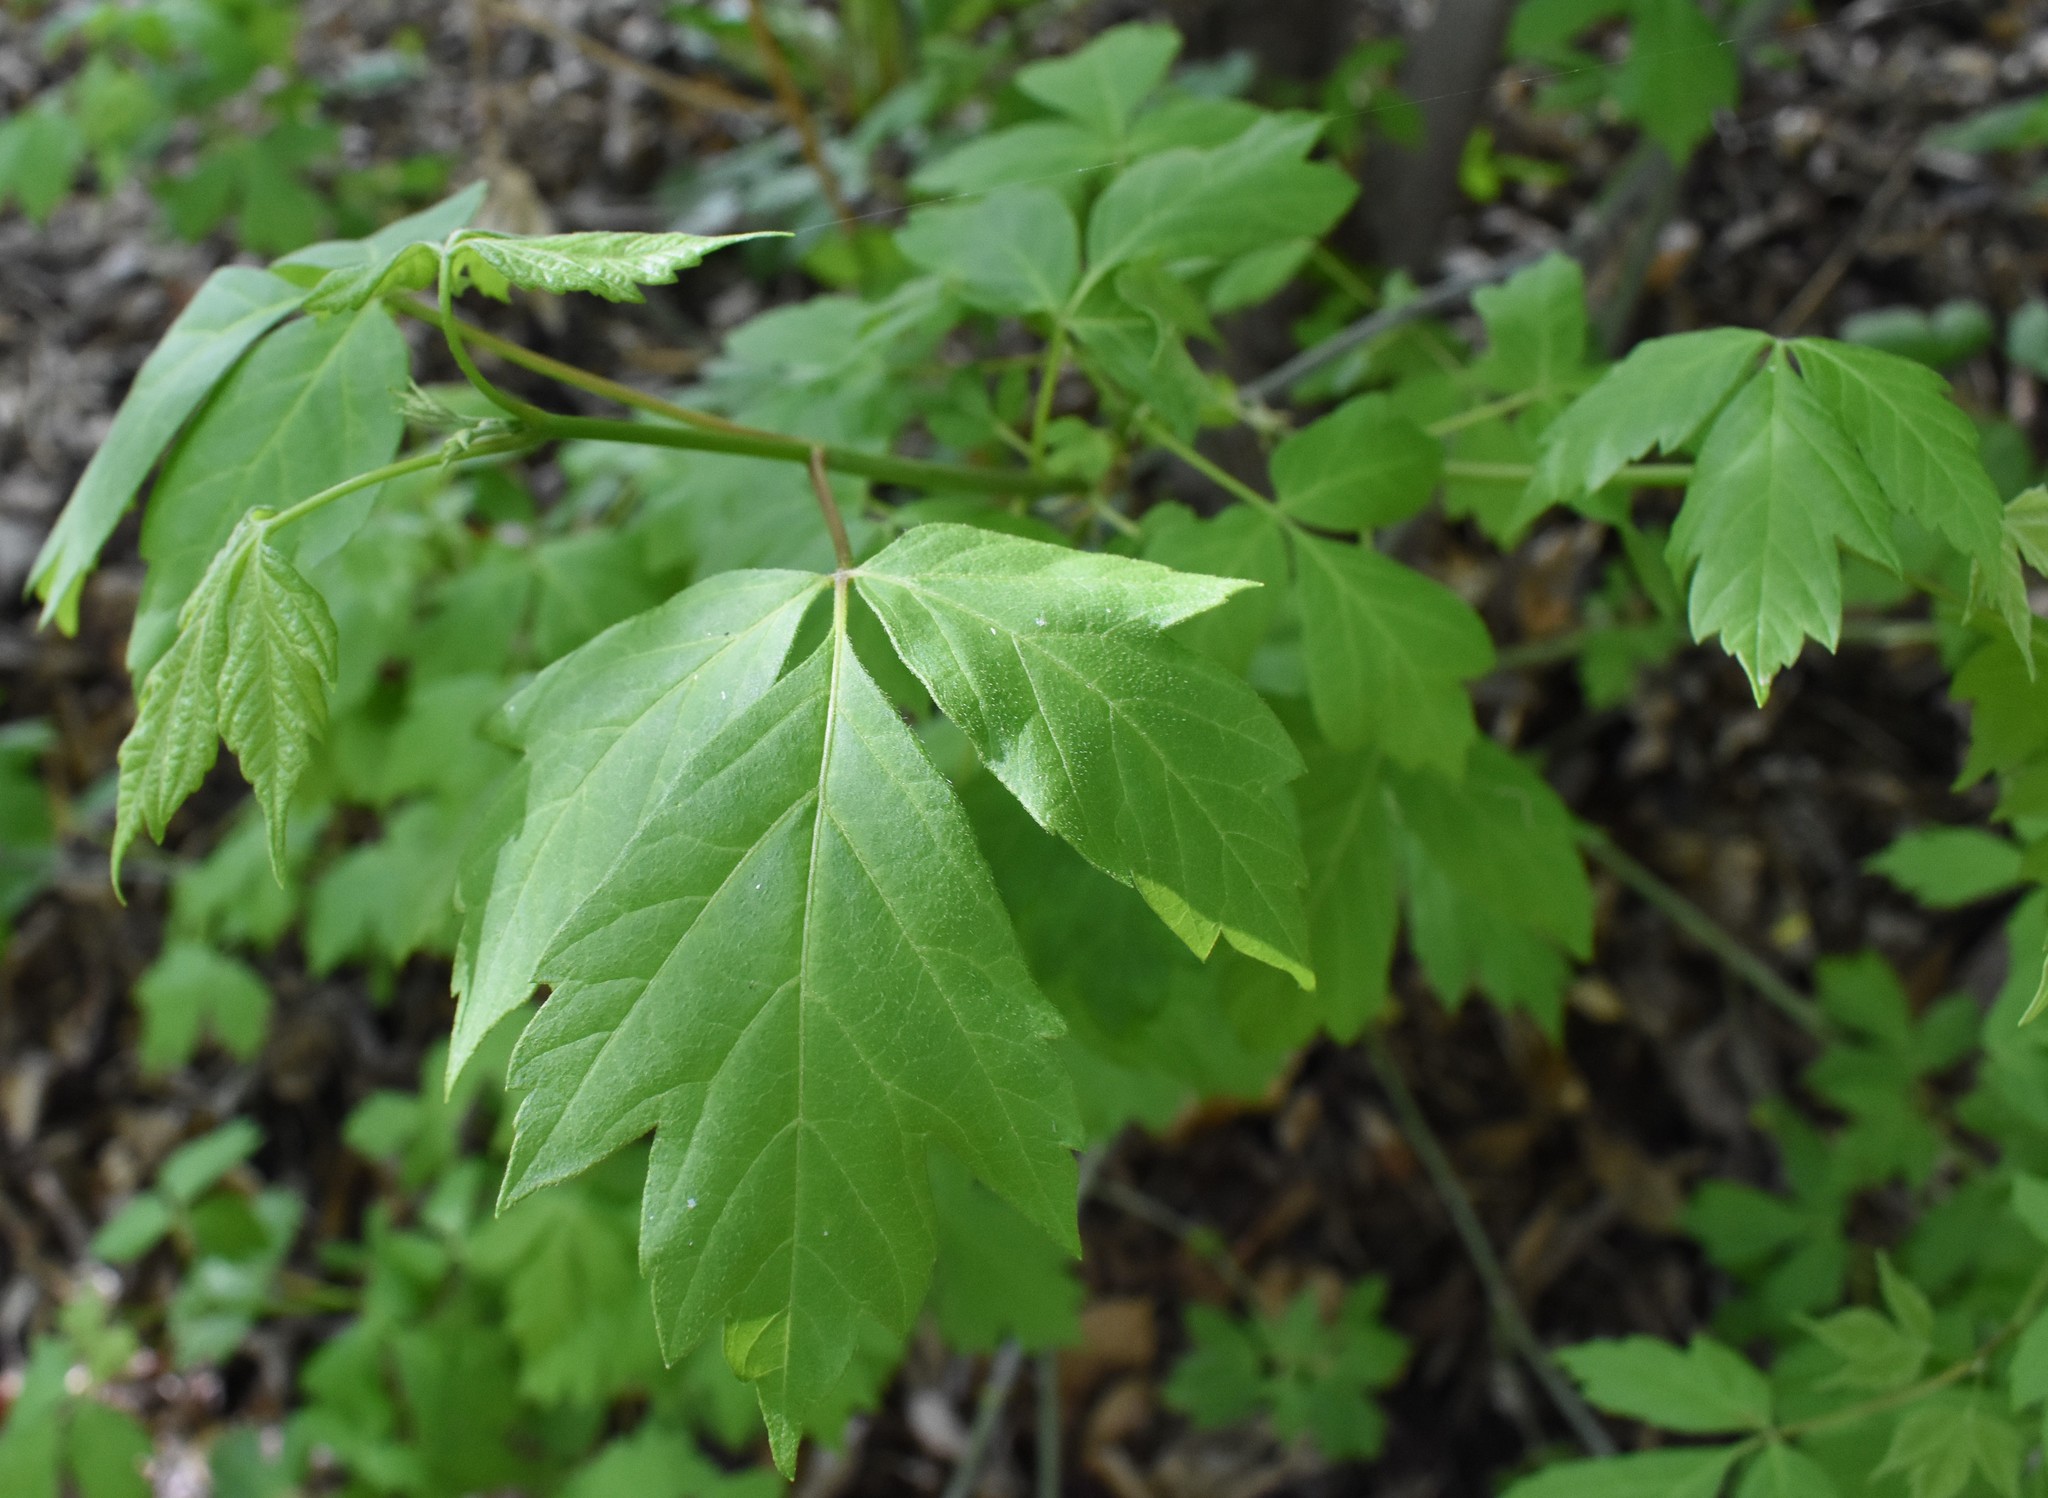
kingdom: Plantae
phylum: Tracheophyta
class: Magnoliopsida
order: Sapindales
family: Sapindaceae
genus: Acer
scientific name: Acer negundo
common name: Ashleaf maple
